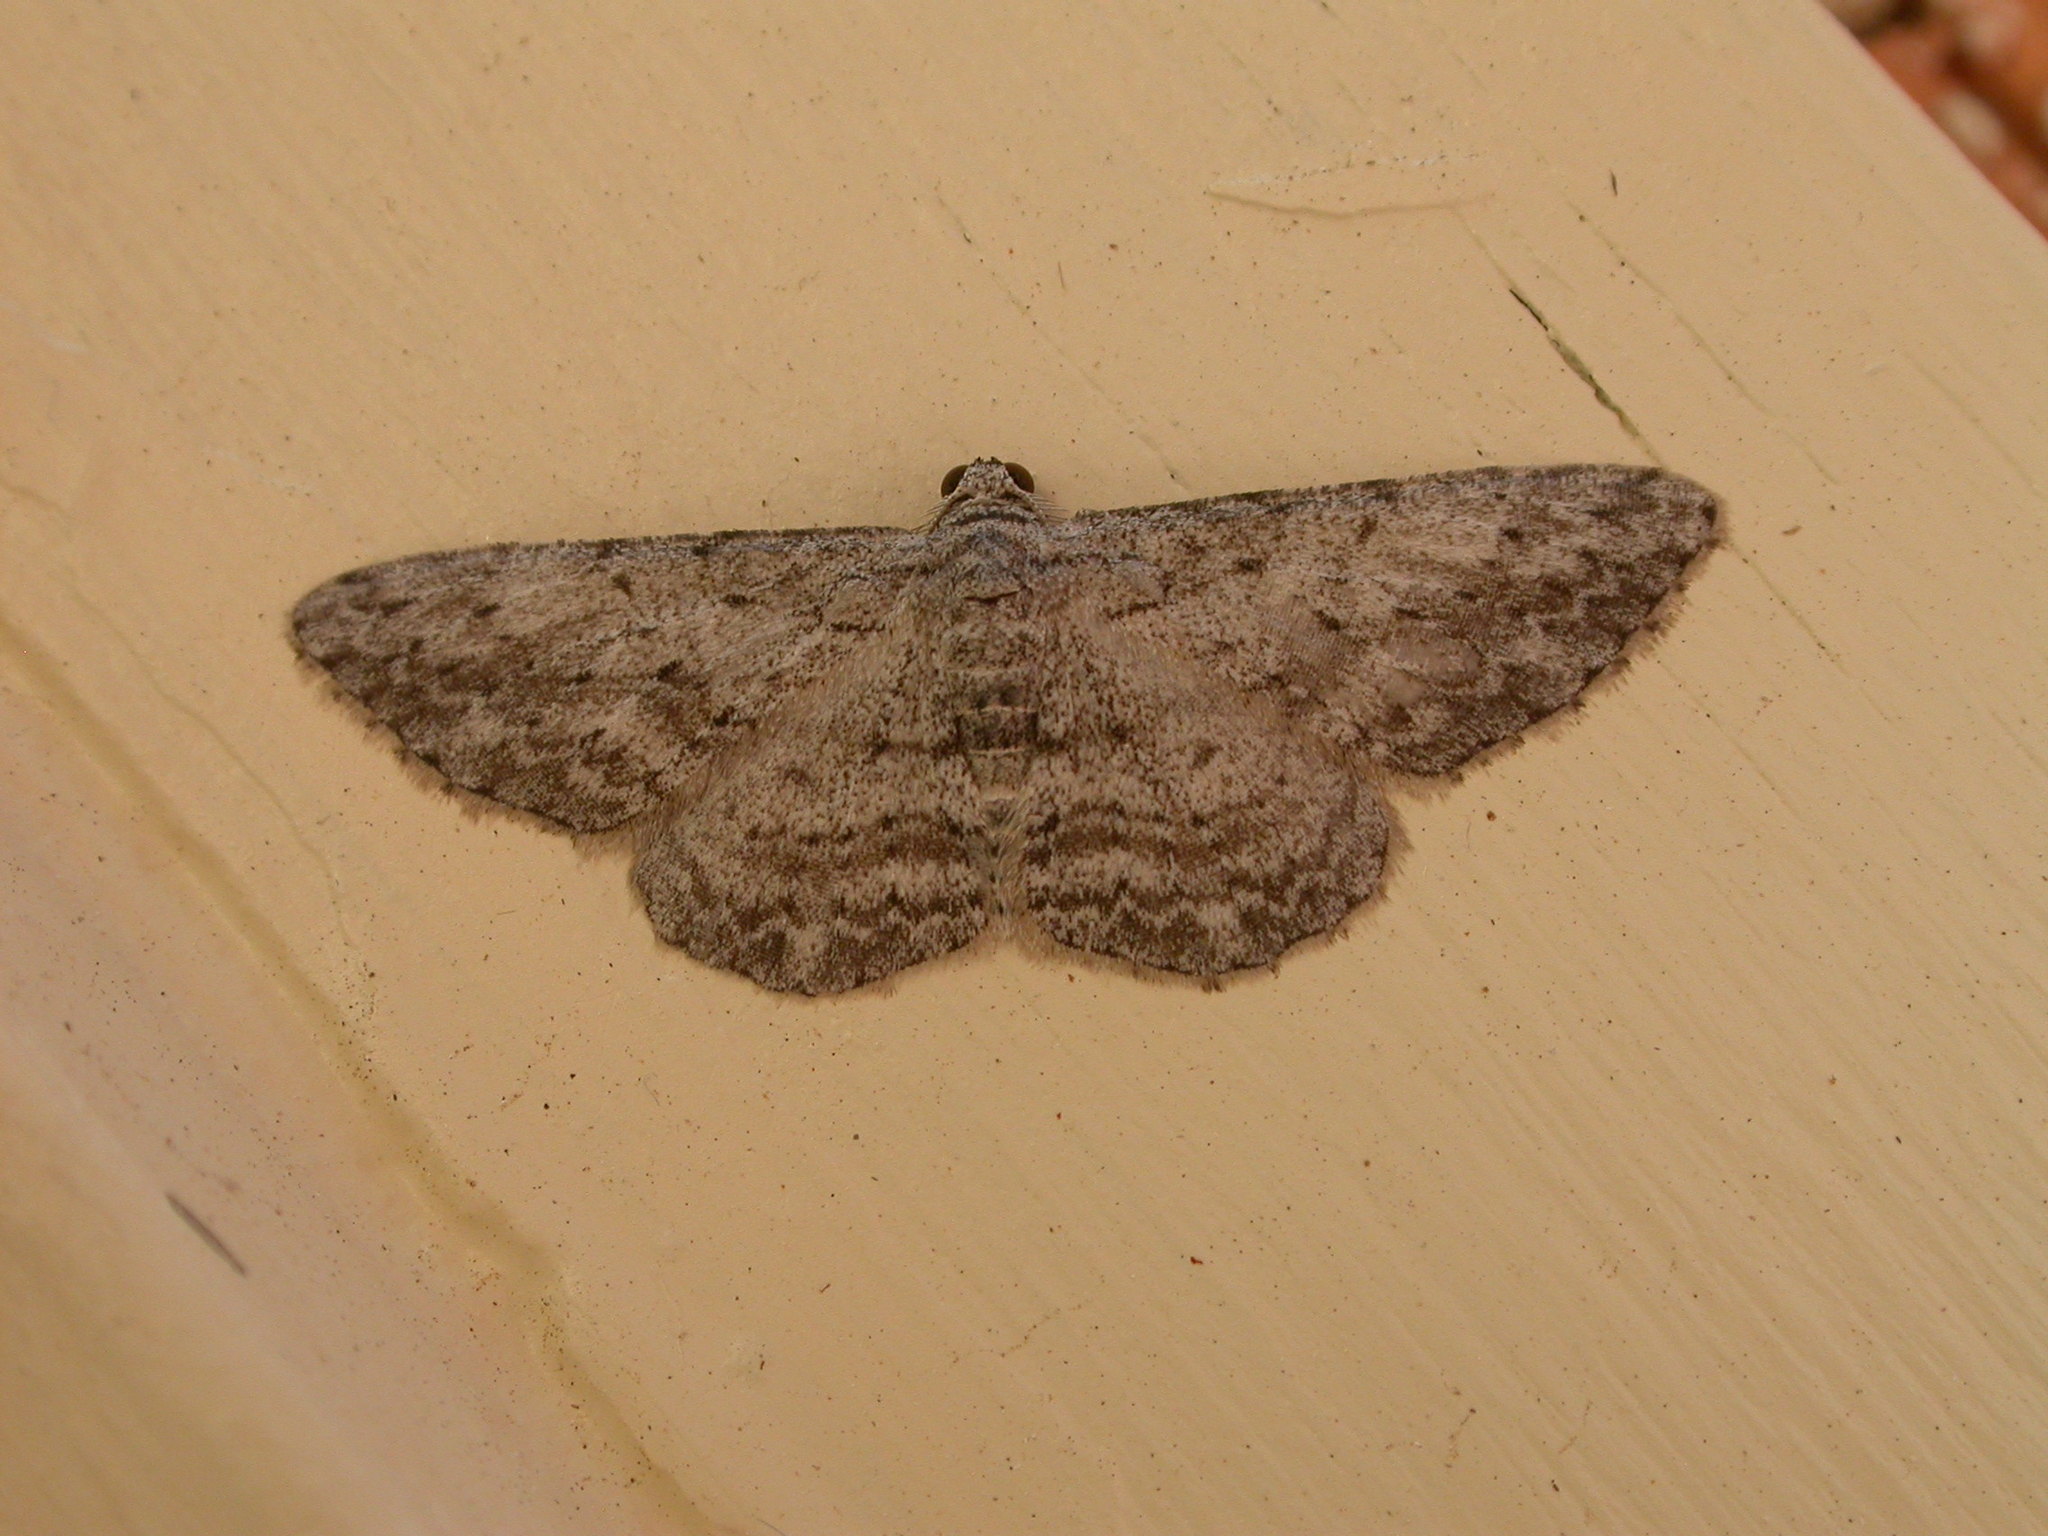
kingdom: Animalia
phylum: Arthropoda
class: Insecta
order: Lepidoptera
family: Geometridae
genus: Phelotis
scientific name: Phelotis cognata
